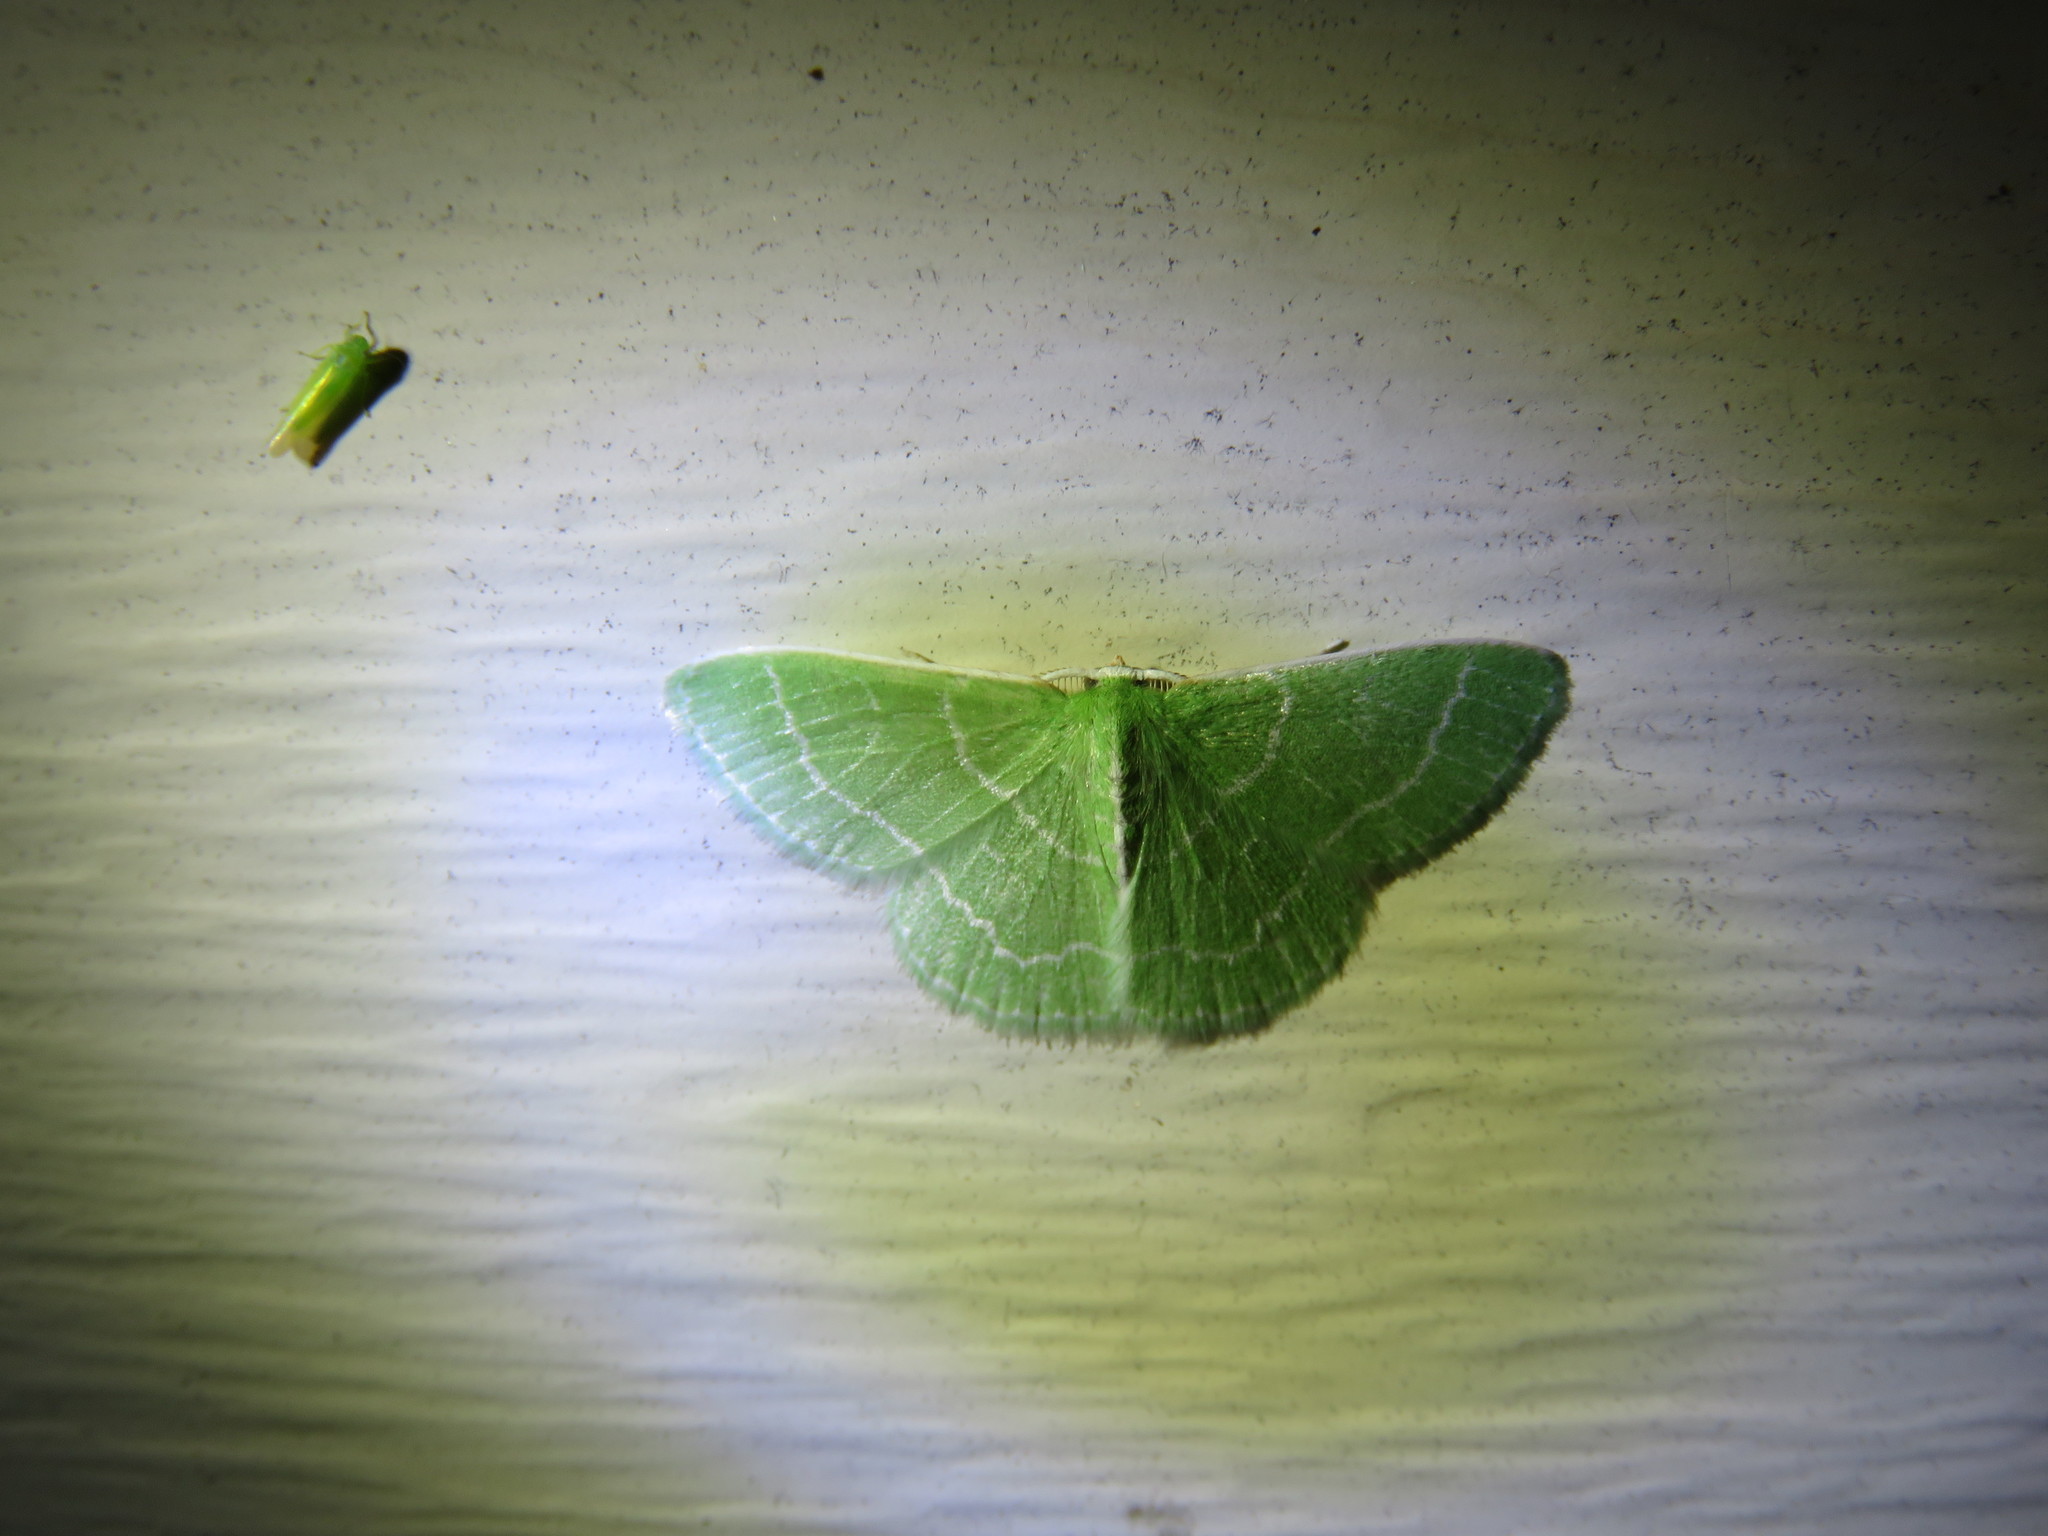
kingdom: Animalia
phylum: Arthropoda
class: Insecta
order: Lepidoptera
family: Geometridae
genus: Synchlora
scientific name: Synchlora aerata
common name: Wavy-lined emerald
